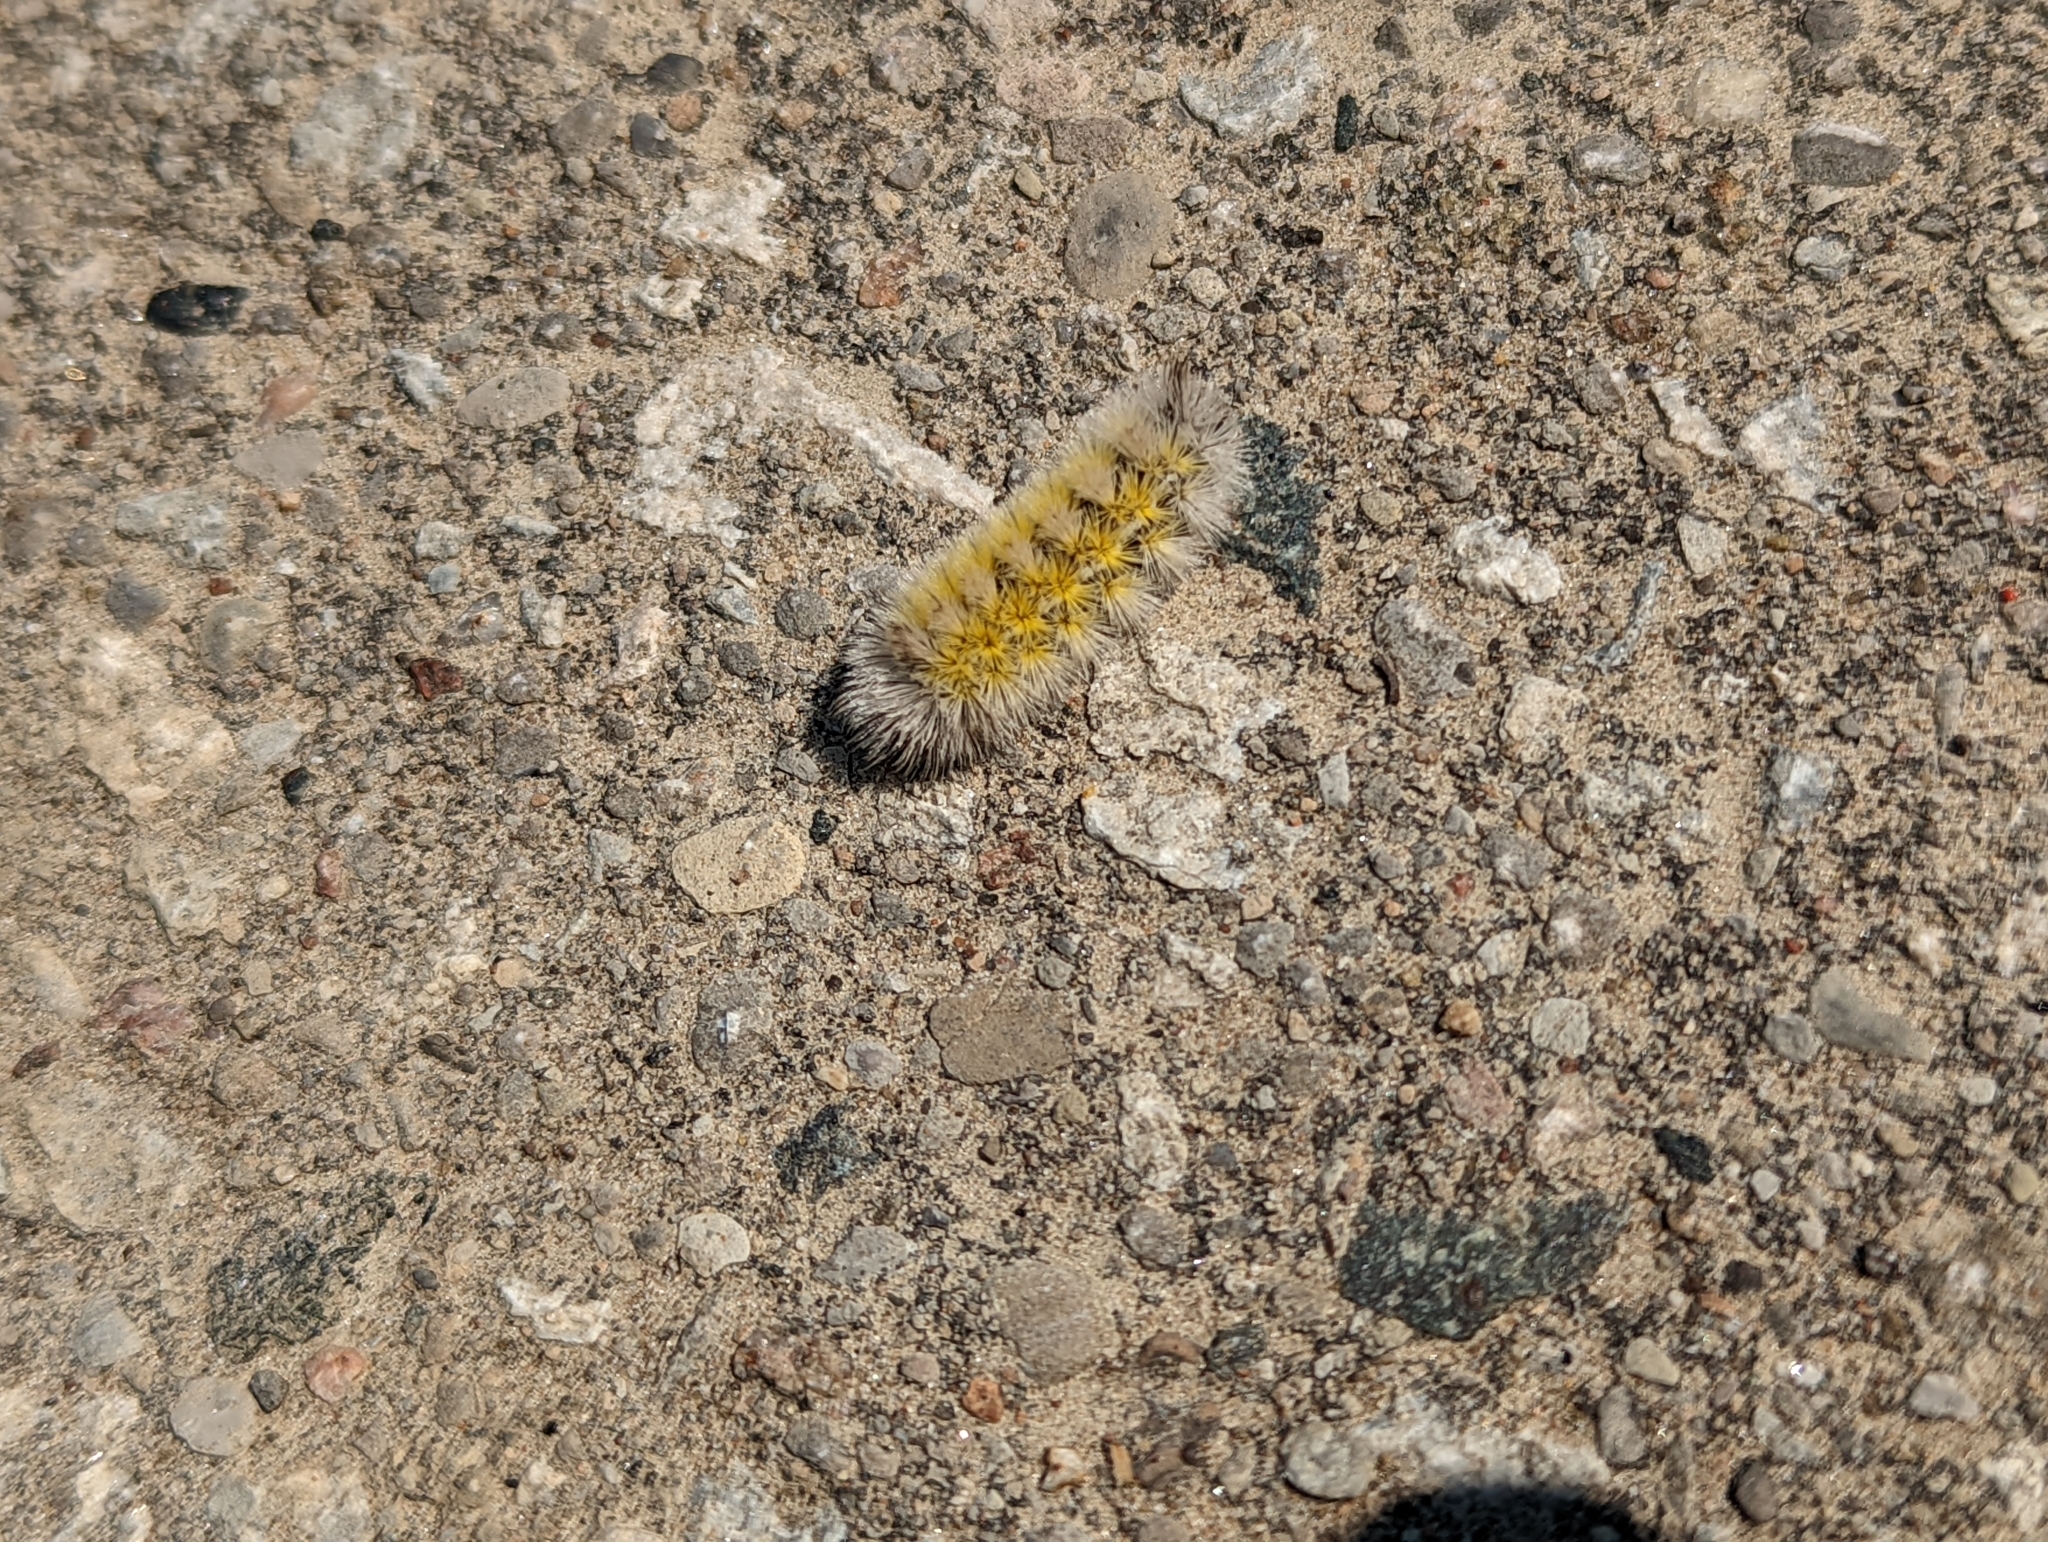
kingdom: Animalia
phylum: Arthropoda
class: Insecta
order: Lepidoptera
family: Erebidae
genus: Ctenucha
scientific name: Ctenucha virginica
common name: Virginia ctenucha moth
